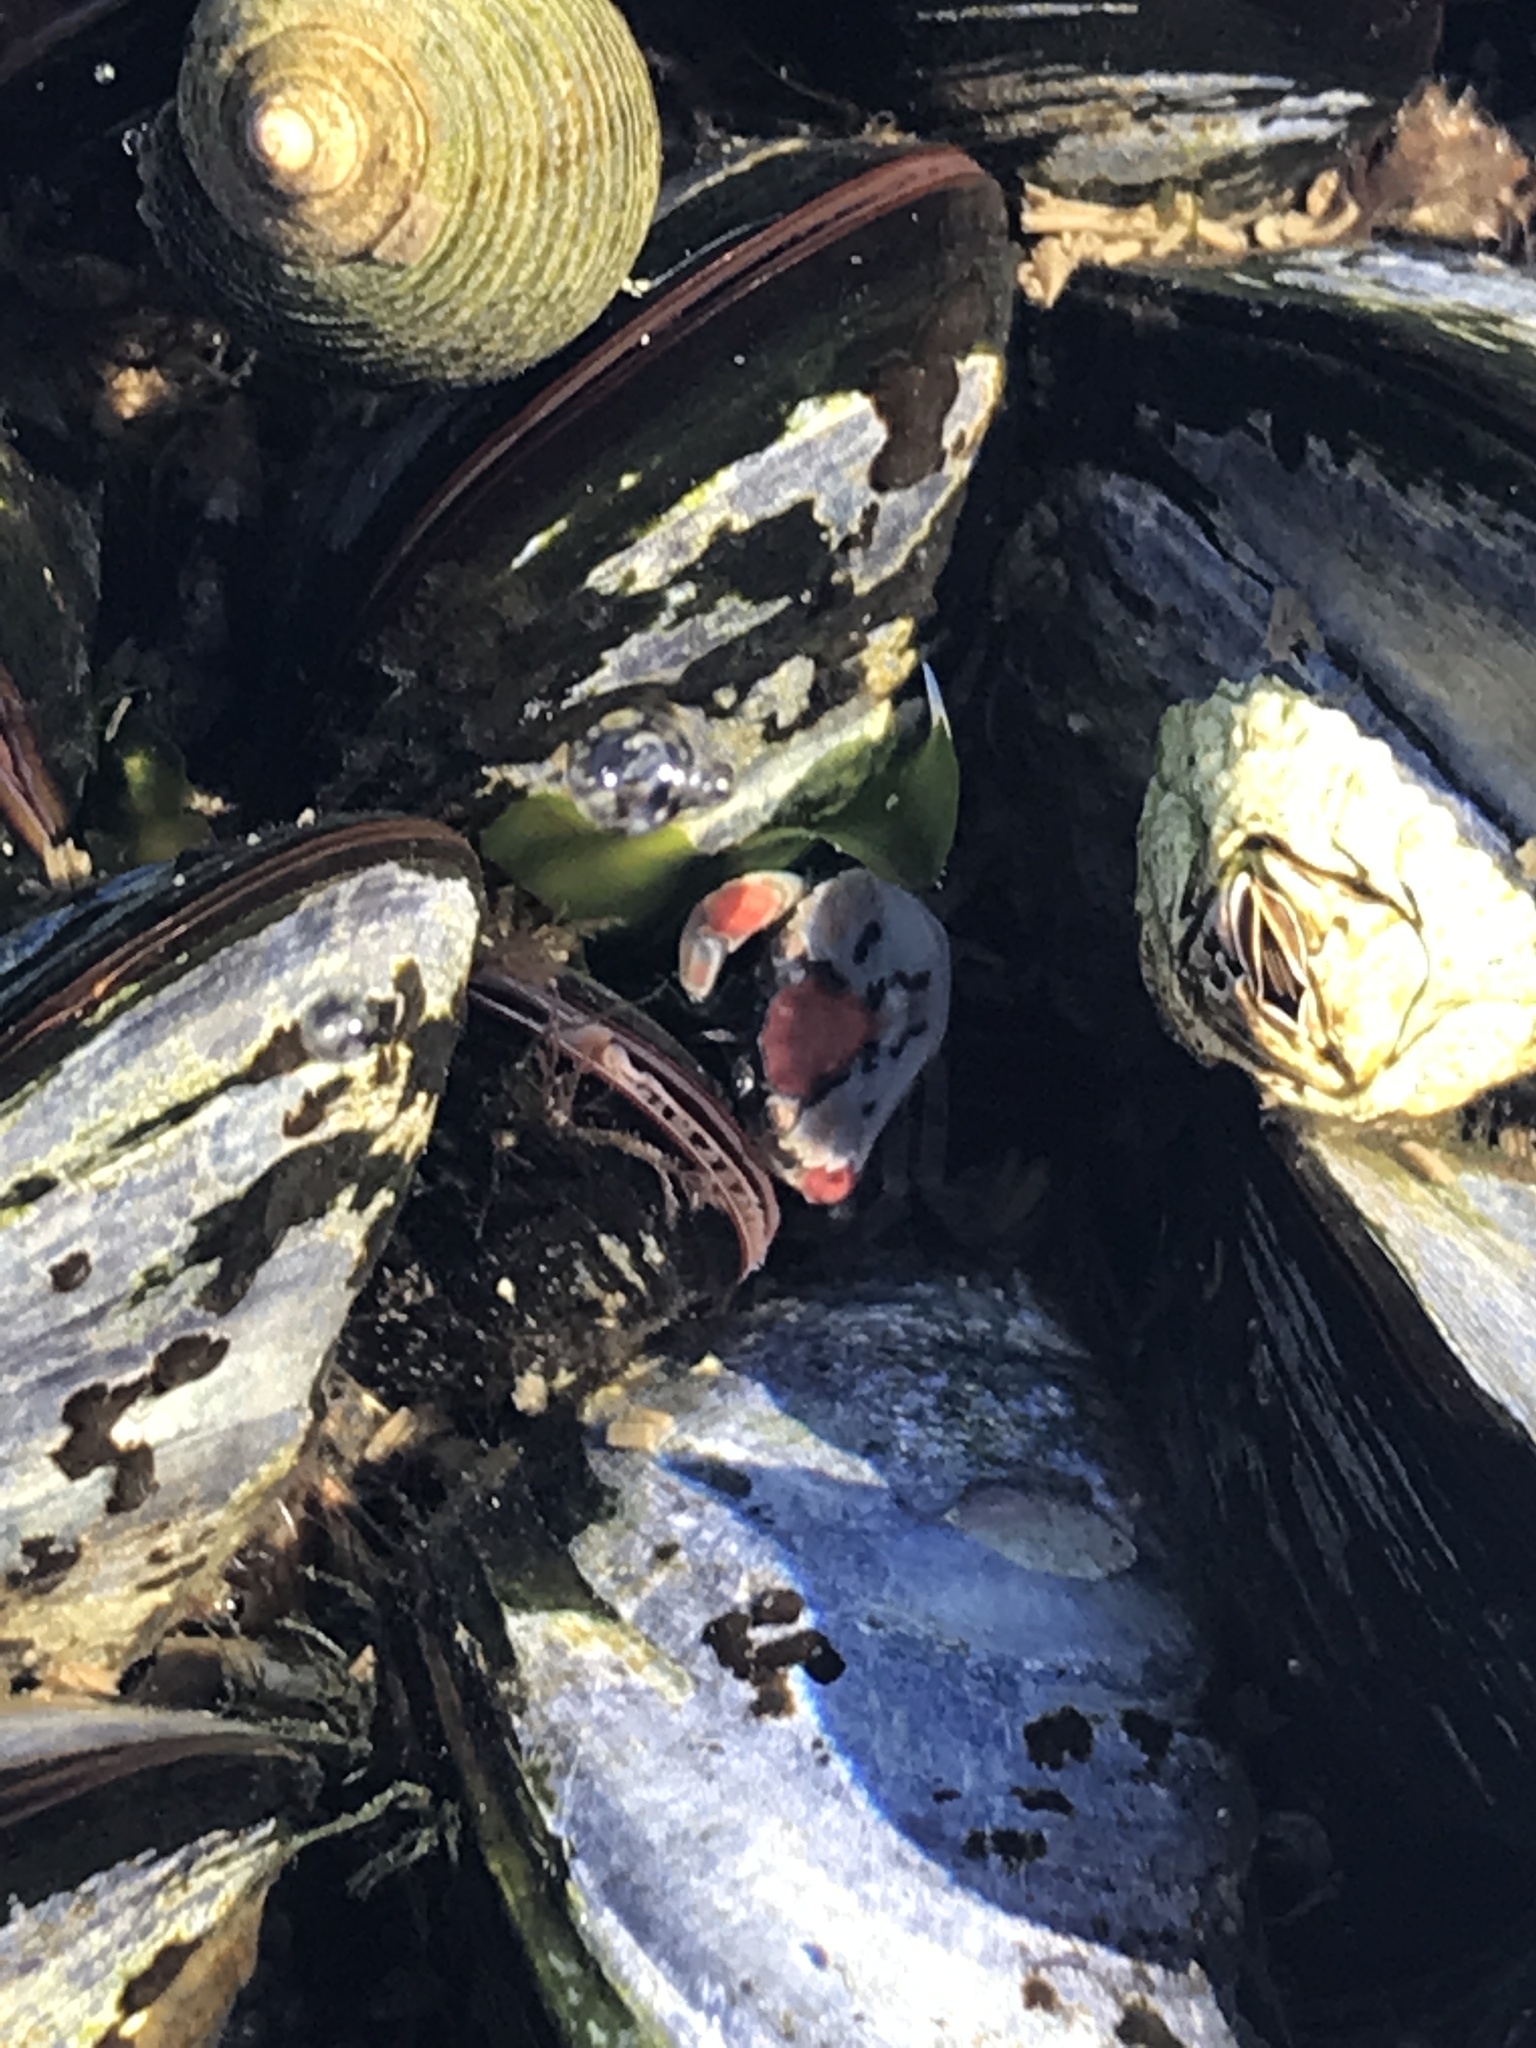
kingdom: Animalia
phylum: Arthropoda
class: Malacostraca
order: Decapoda
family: Carcinidae
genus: Carcinus
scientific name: Carcinus maenas
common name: European green crab
